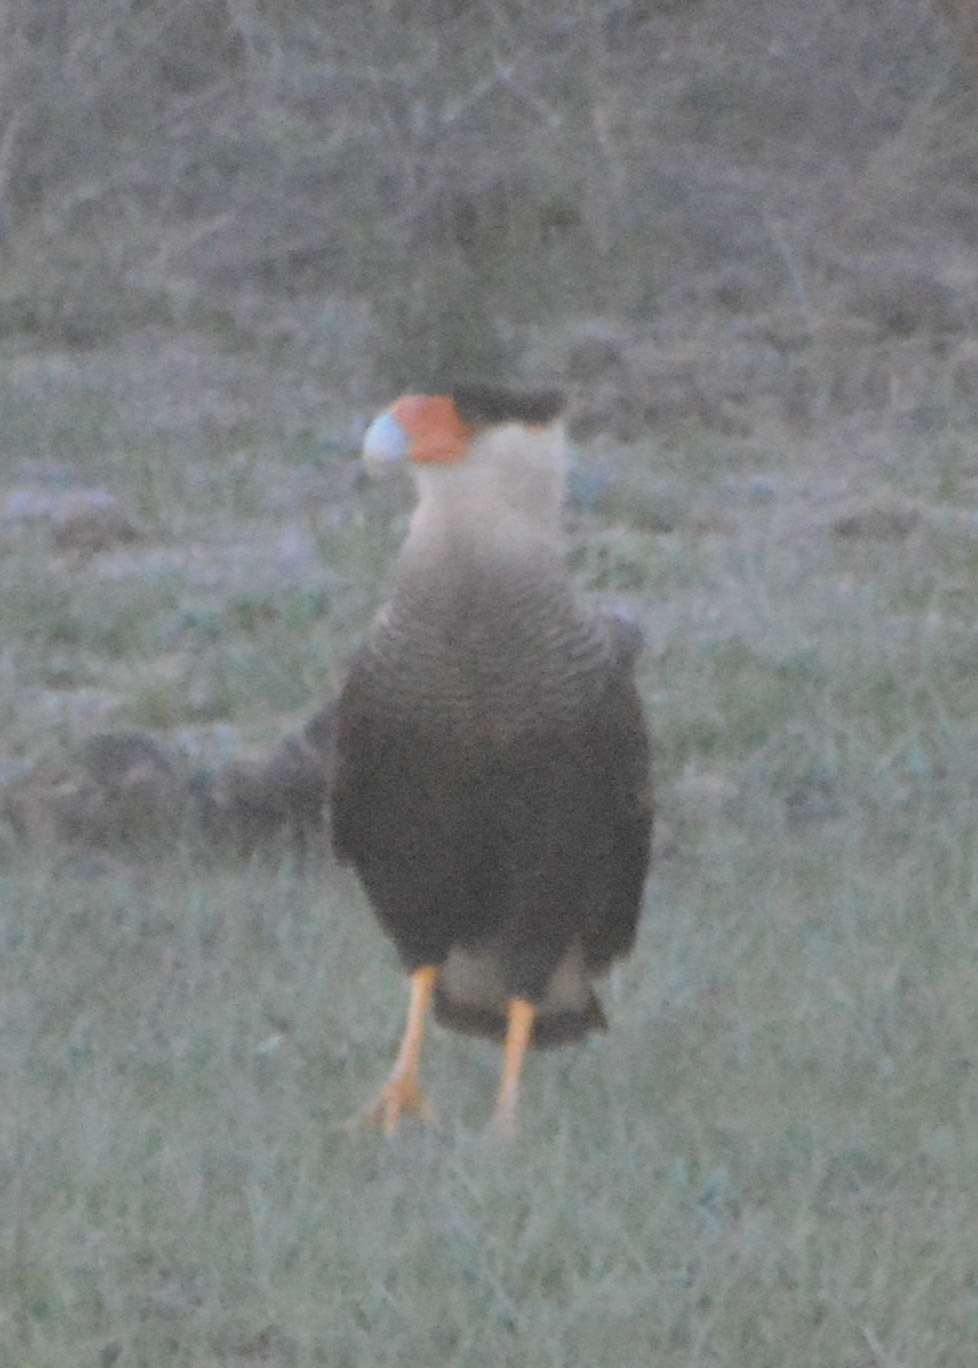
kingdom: Animalia
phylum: Chordata
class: Aves
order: Falconiformes
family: Falconidae
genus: Caracara
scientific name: Caracara plancus
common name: Southern caracara
